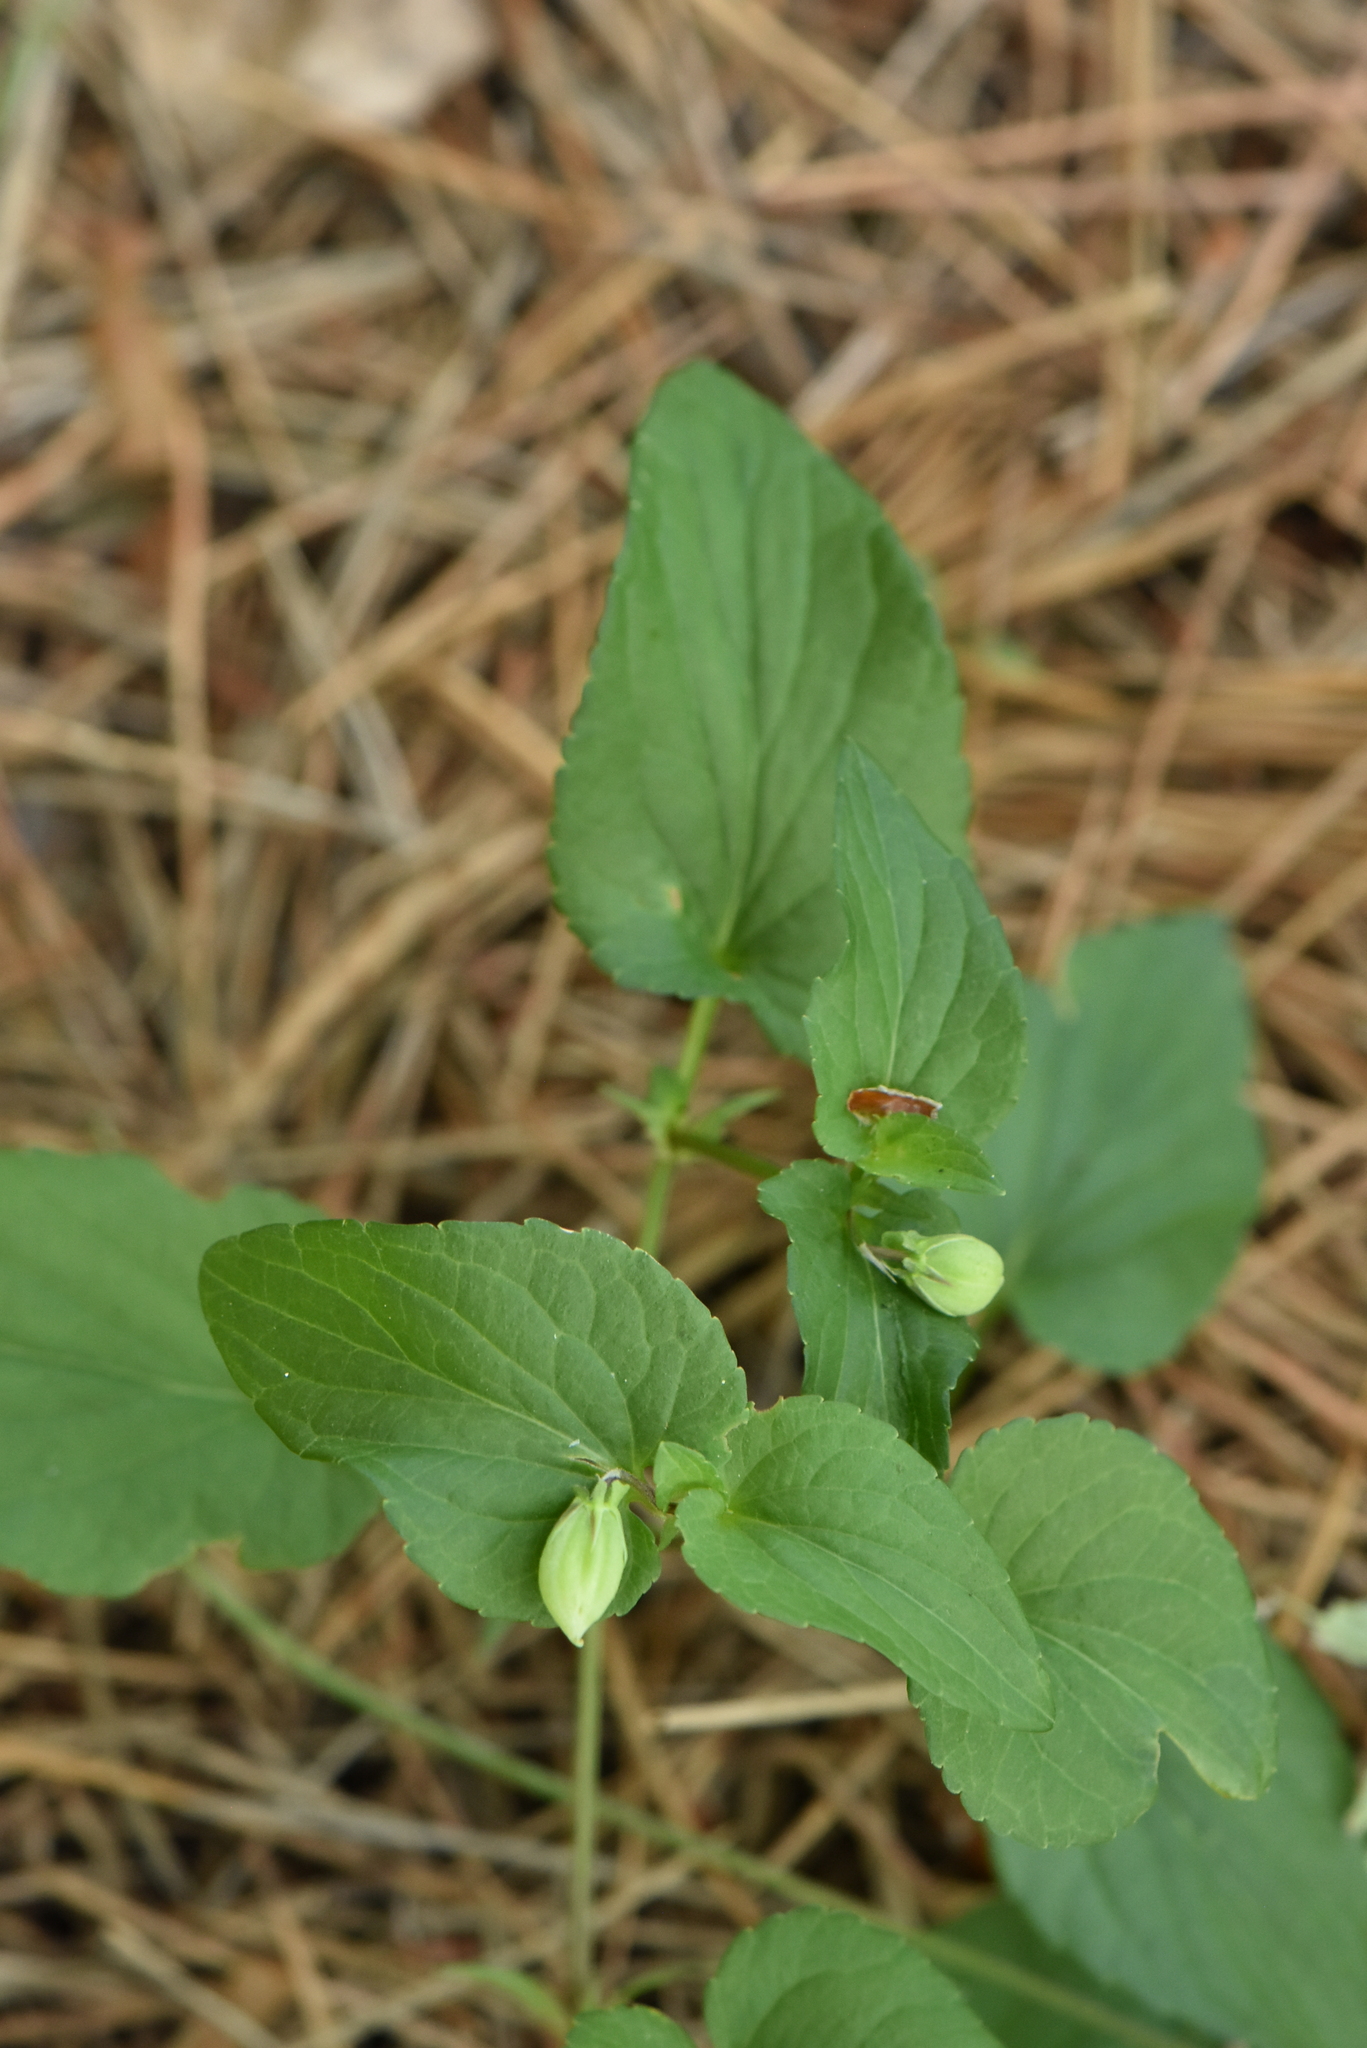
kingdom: Plantae
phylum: Tracheophyta
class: Magnoliopsida
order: Malpighiales
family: Violaceae
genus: Viola
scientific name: Viola
